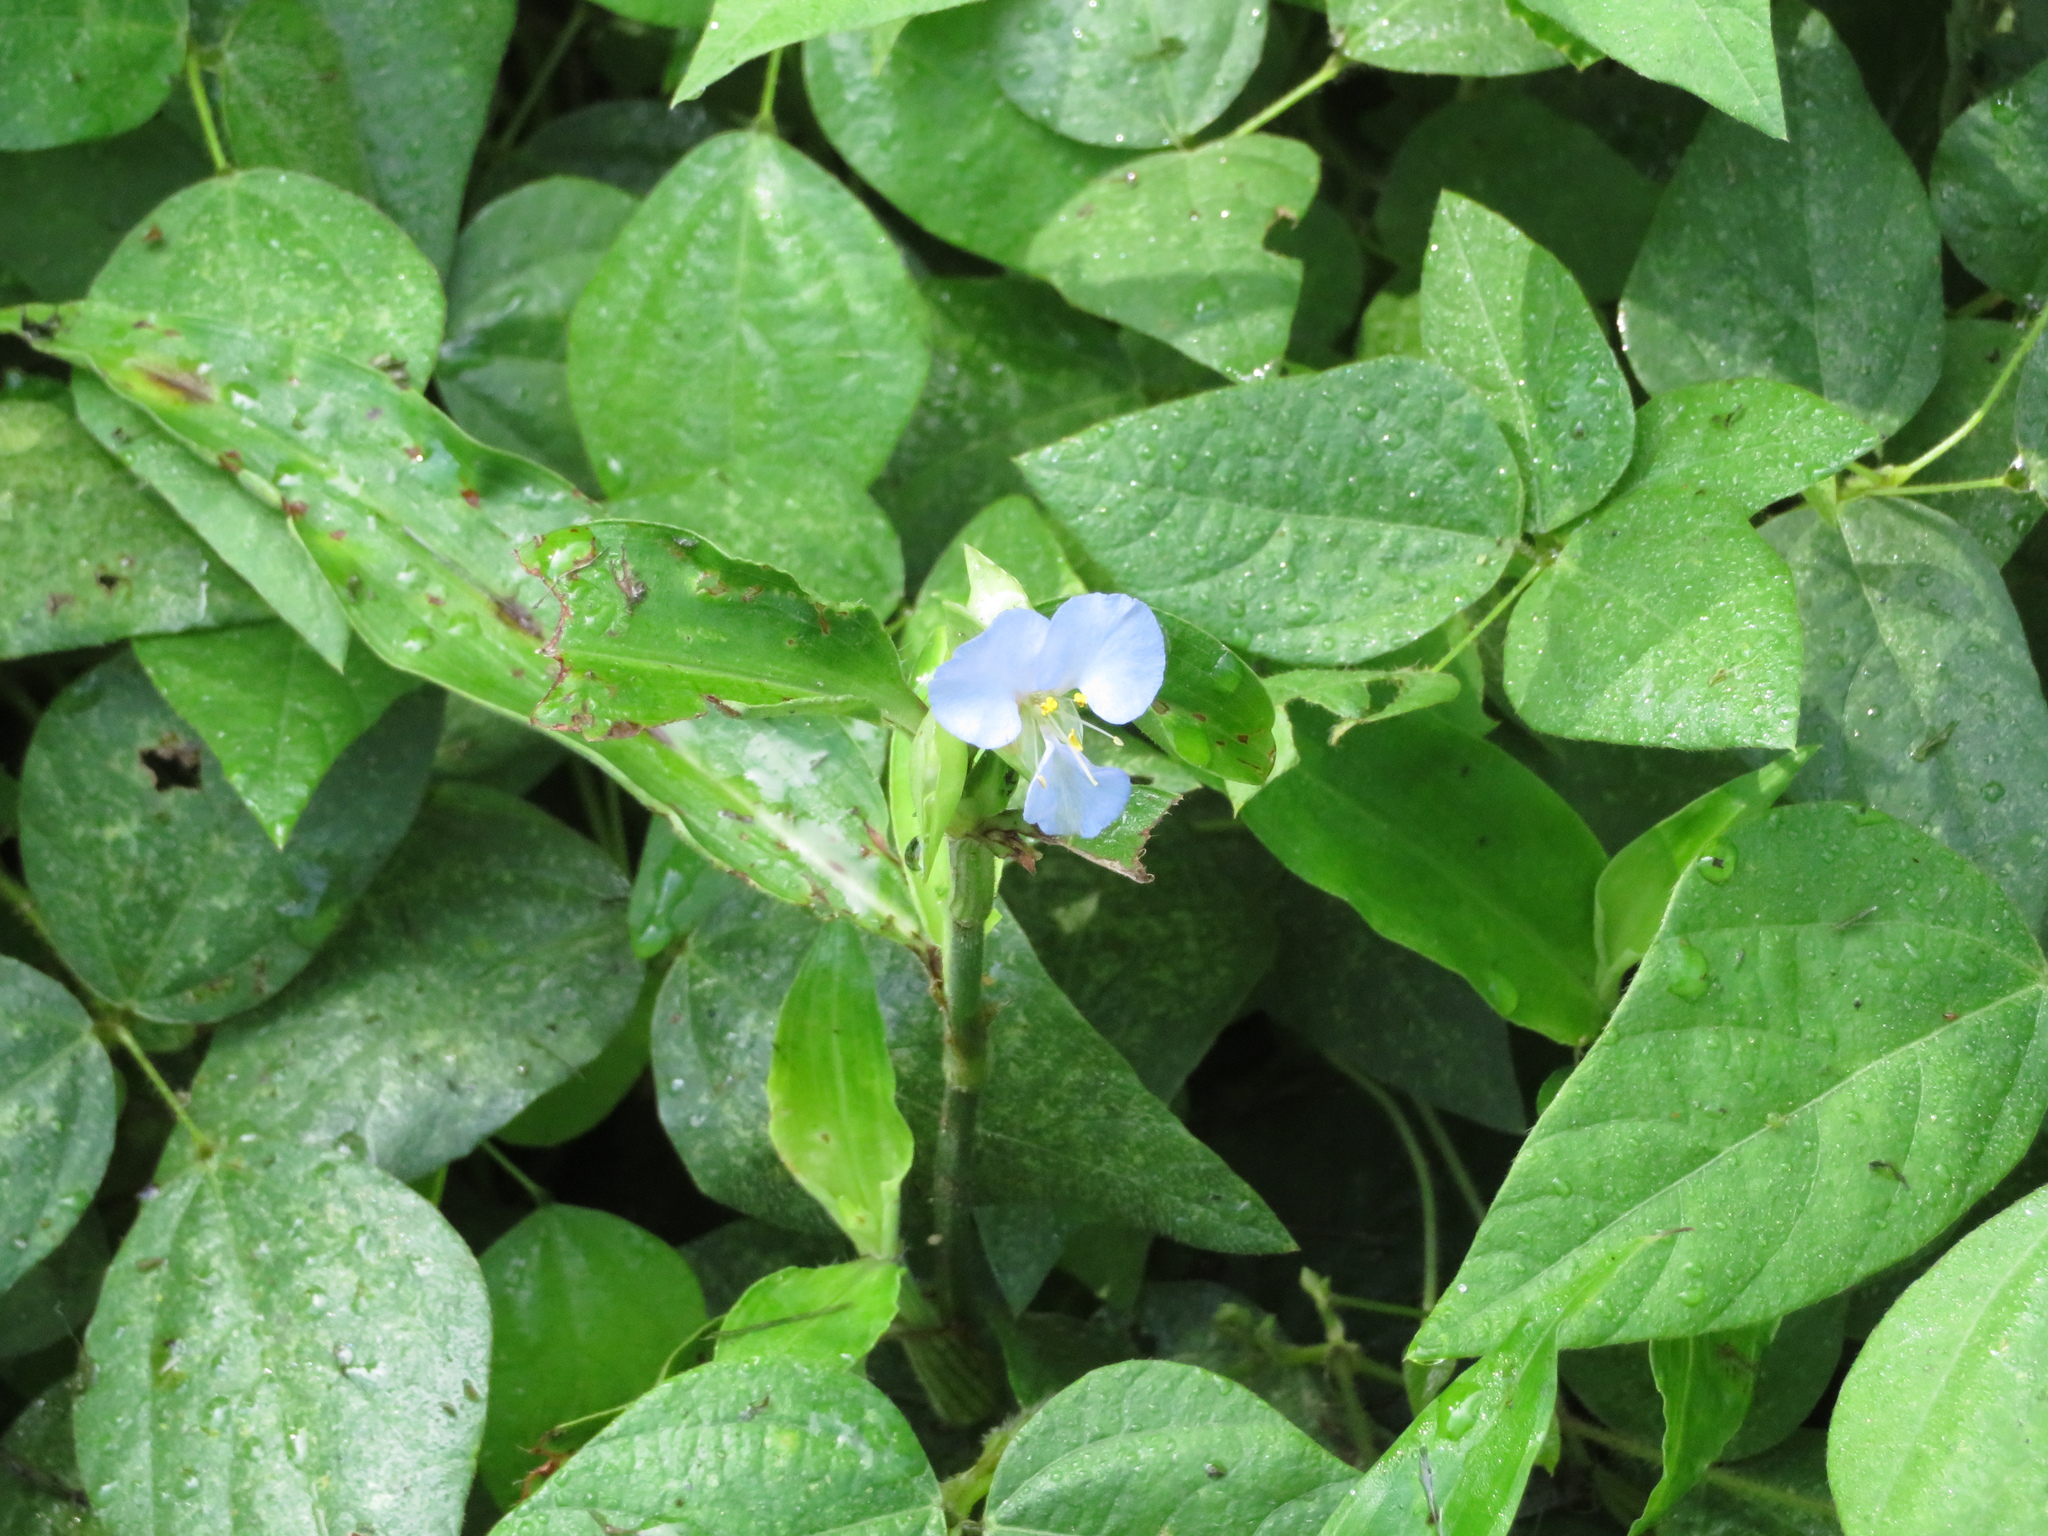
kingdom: Plantae
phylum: Tracheophyta
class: Liliopsida
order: Commelinales
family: Commelinaceae
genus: Commelina
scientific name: Commelina virginica
